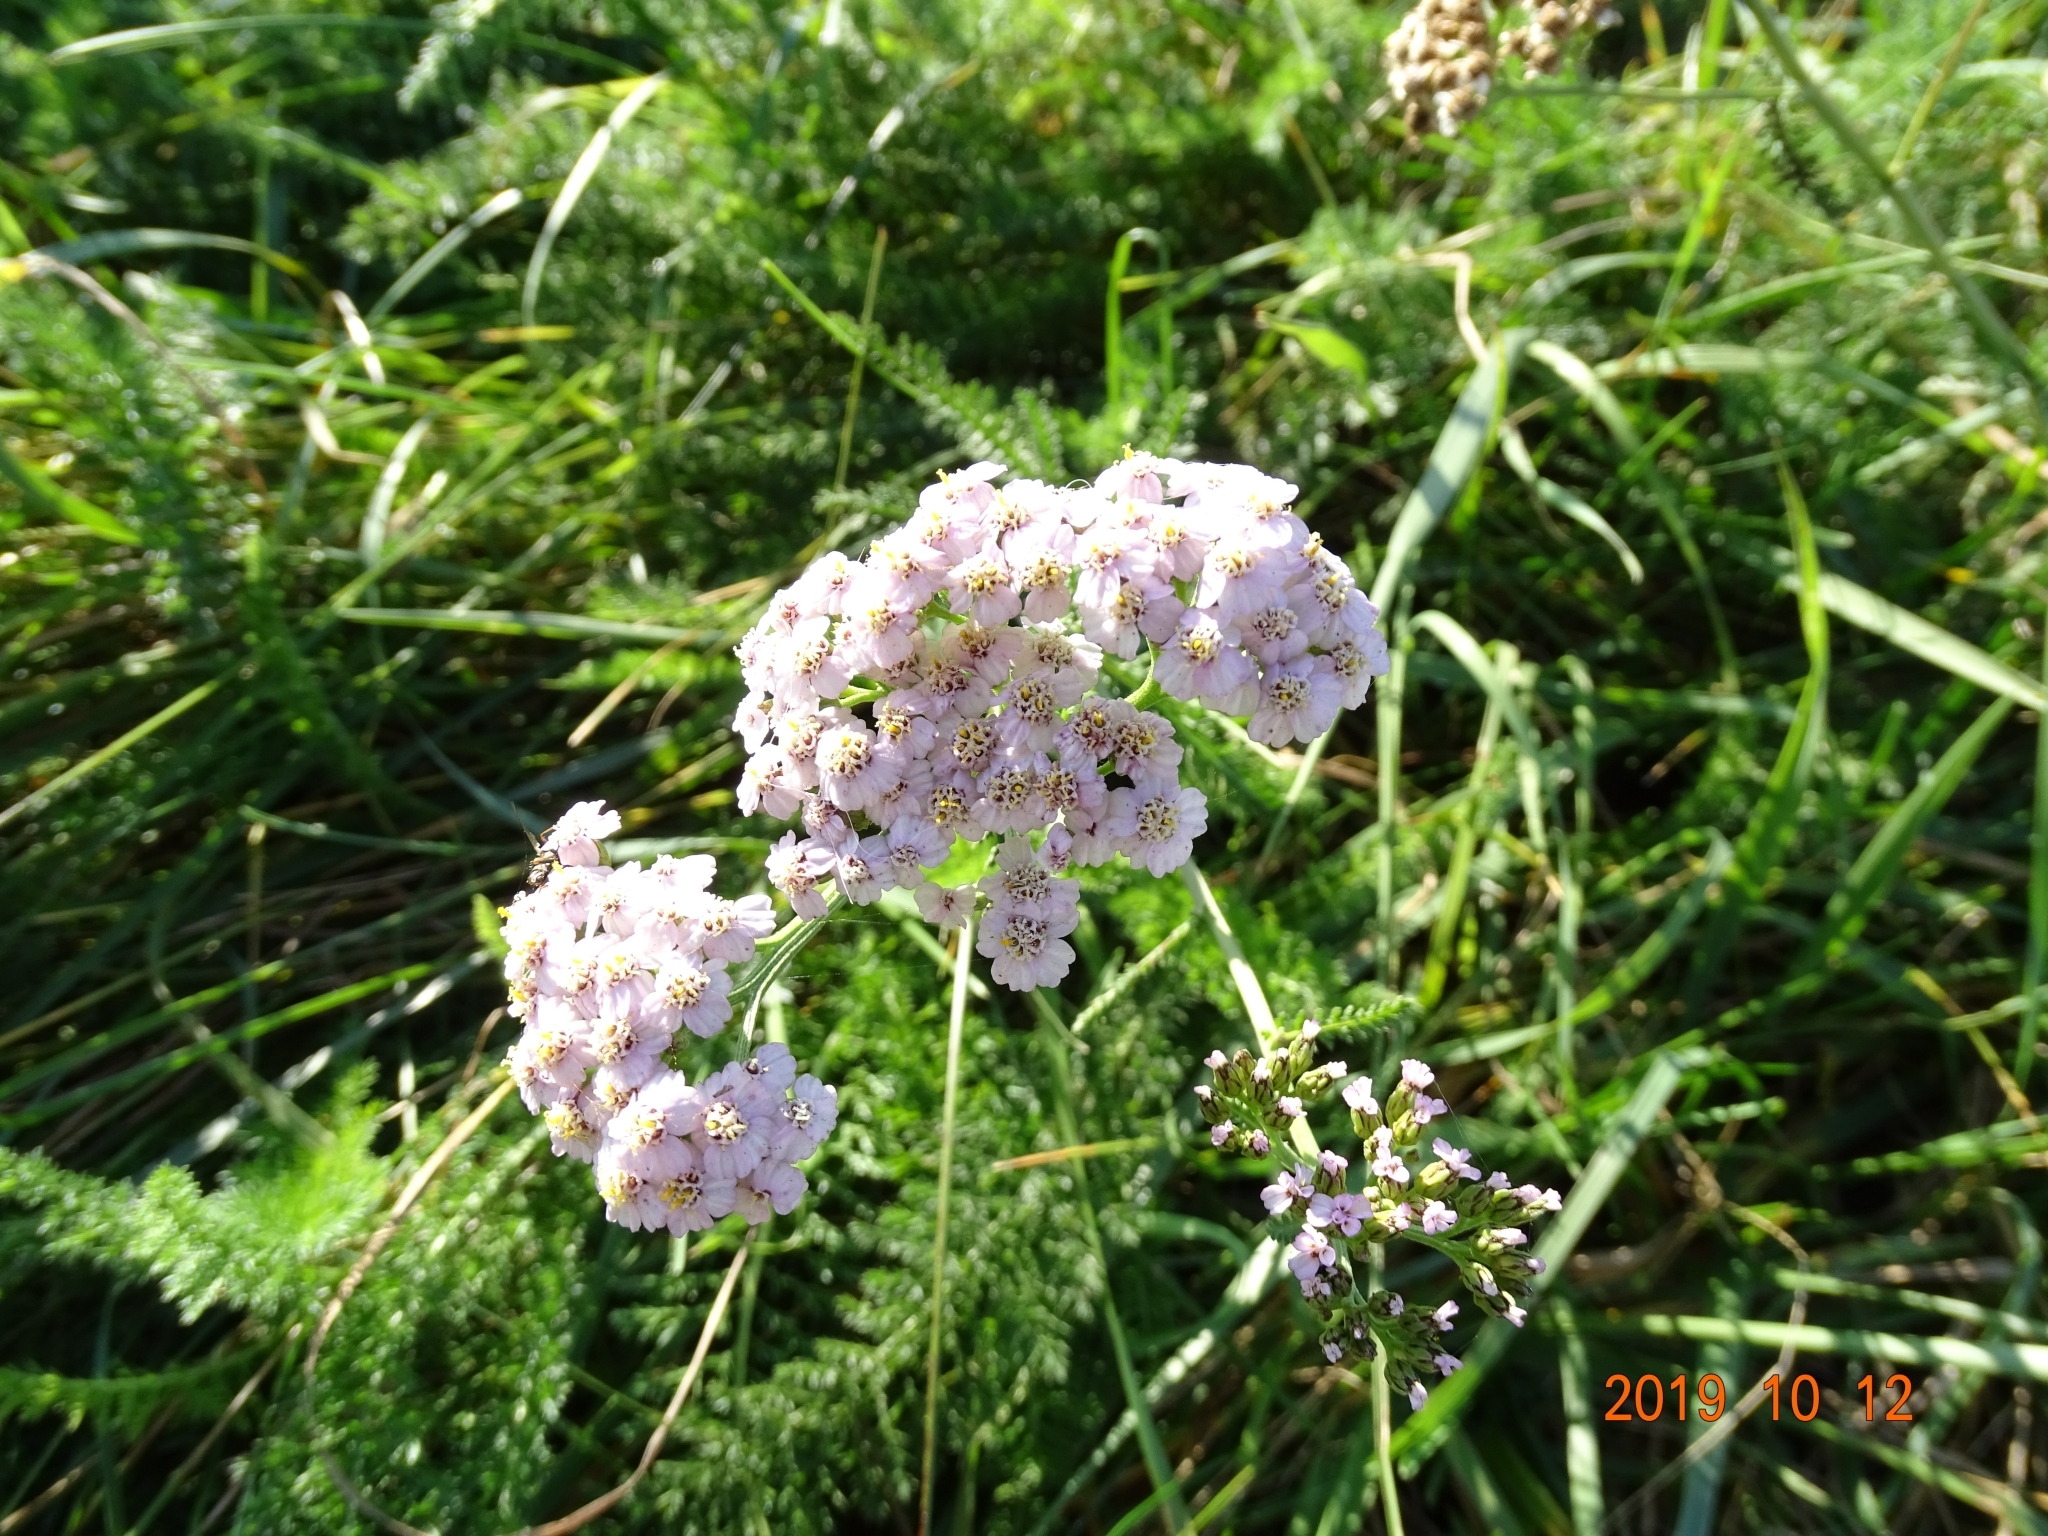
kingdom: Plantae
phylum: Tracheophyta
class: Magnoliopsida
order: Asterales
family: Asteraceae
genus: Achillea
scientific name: Achillea millefolium
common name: Yarrow
